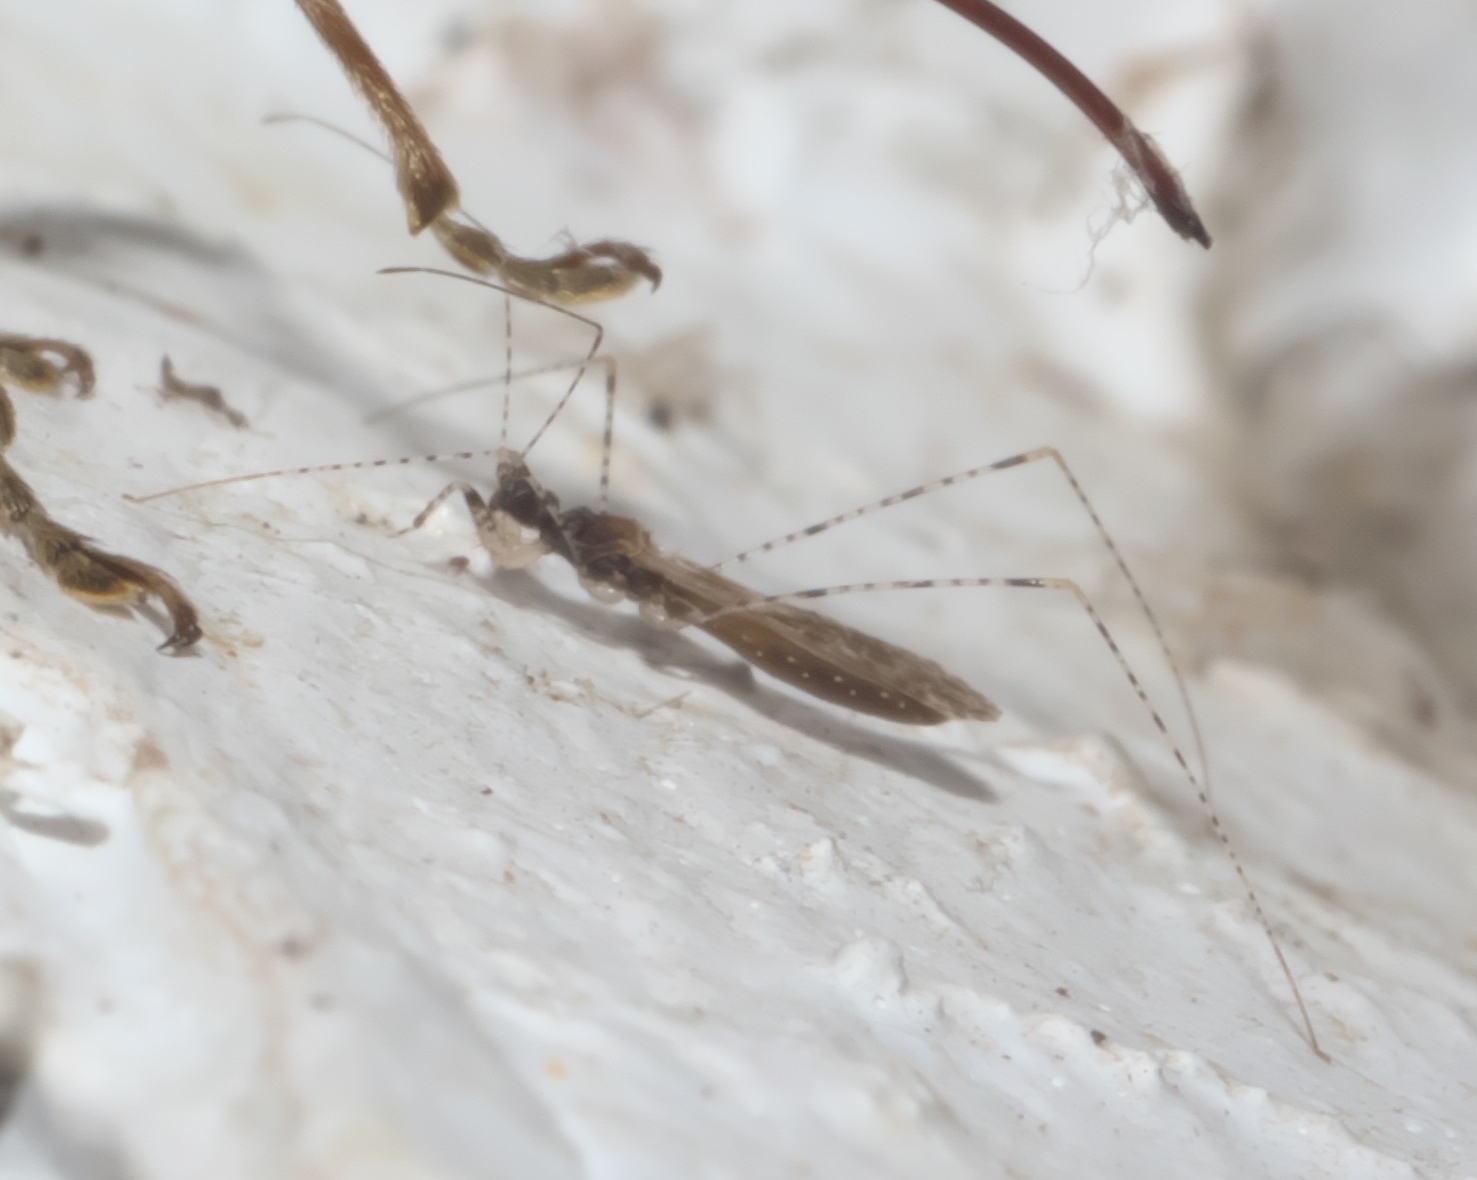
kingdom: Animalia
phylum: Arthropoda
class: Insecta
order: Hemiptera
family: Reduviidae
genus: Empicoris
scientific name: Empicoris culiciformis
